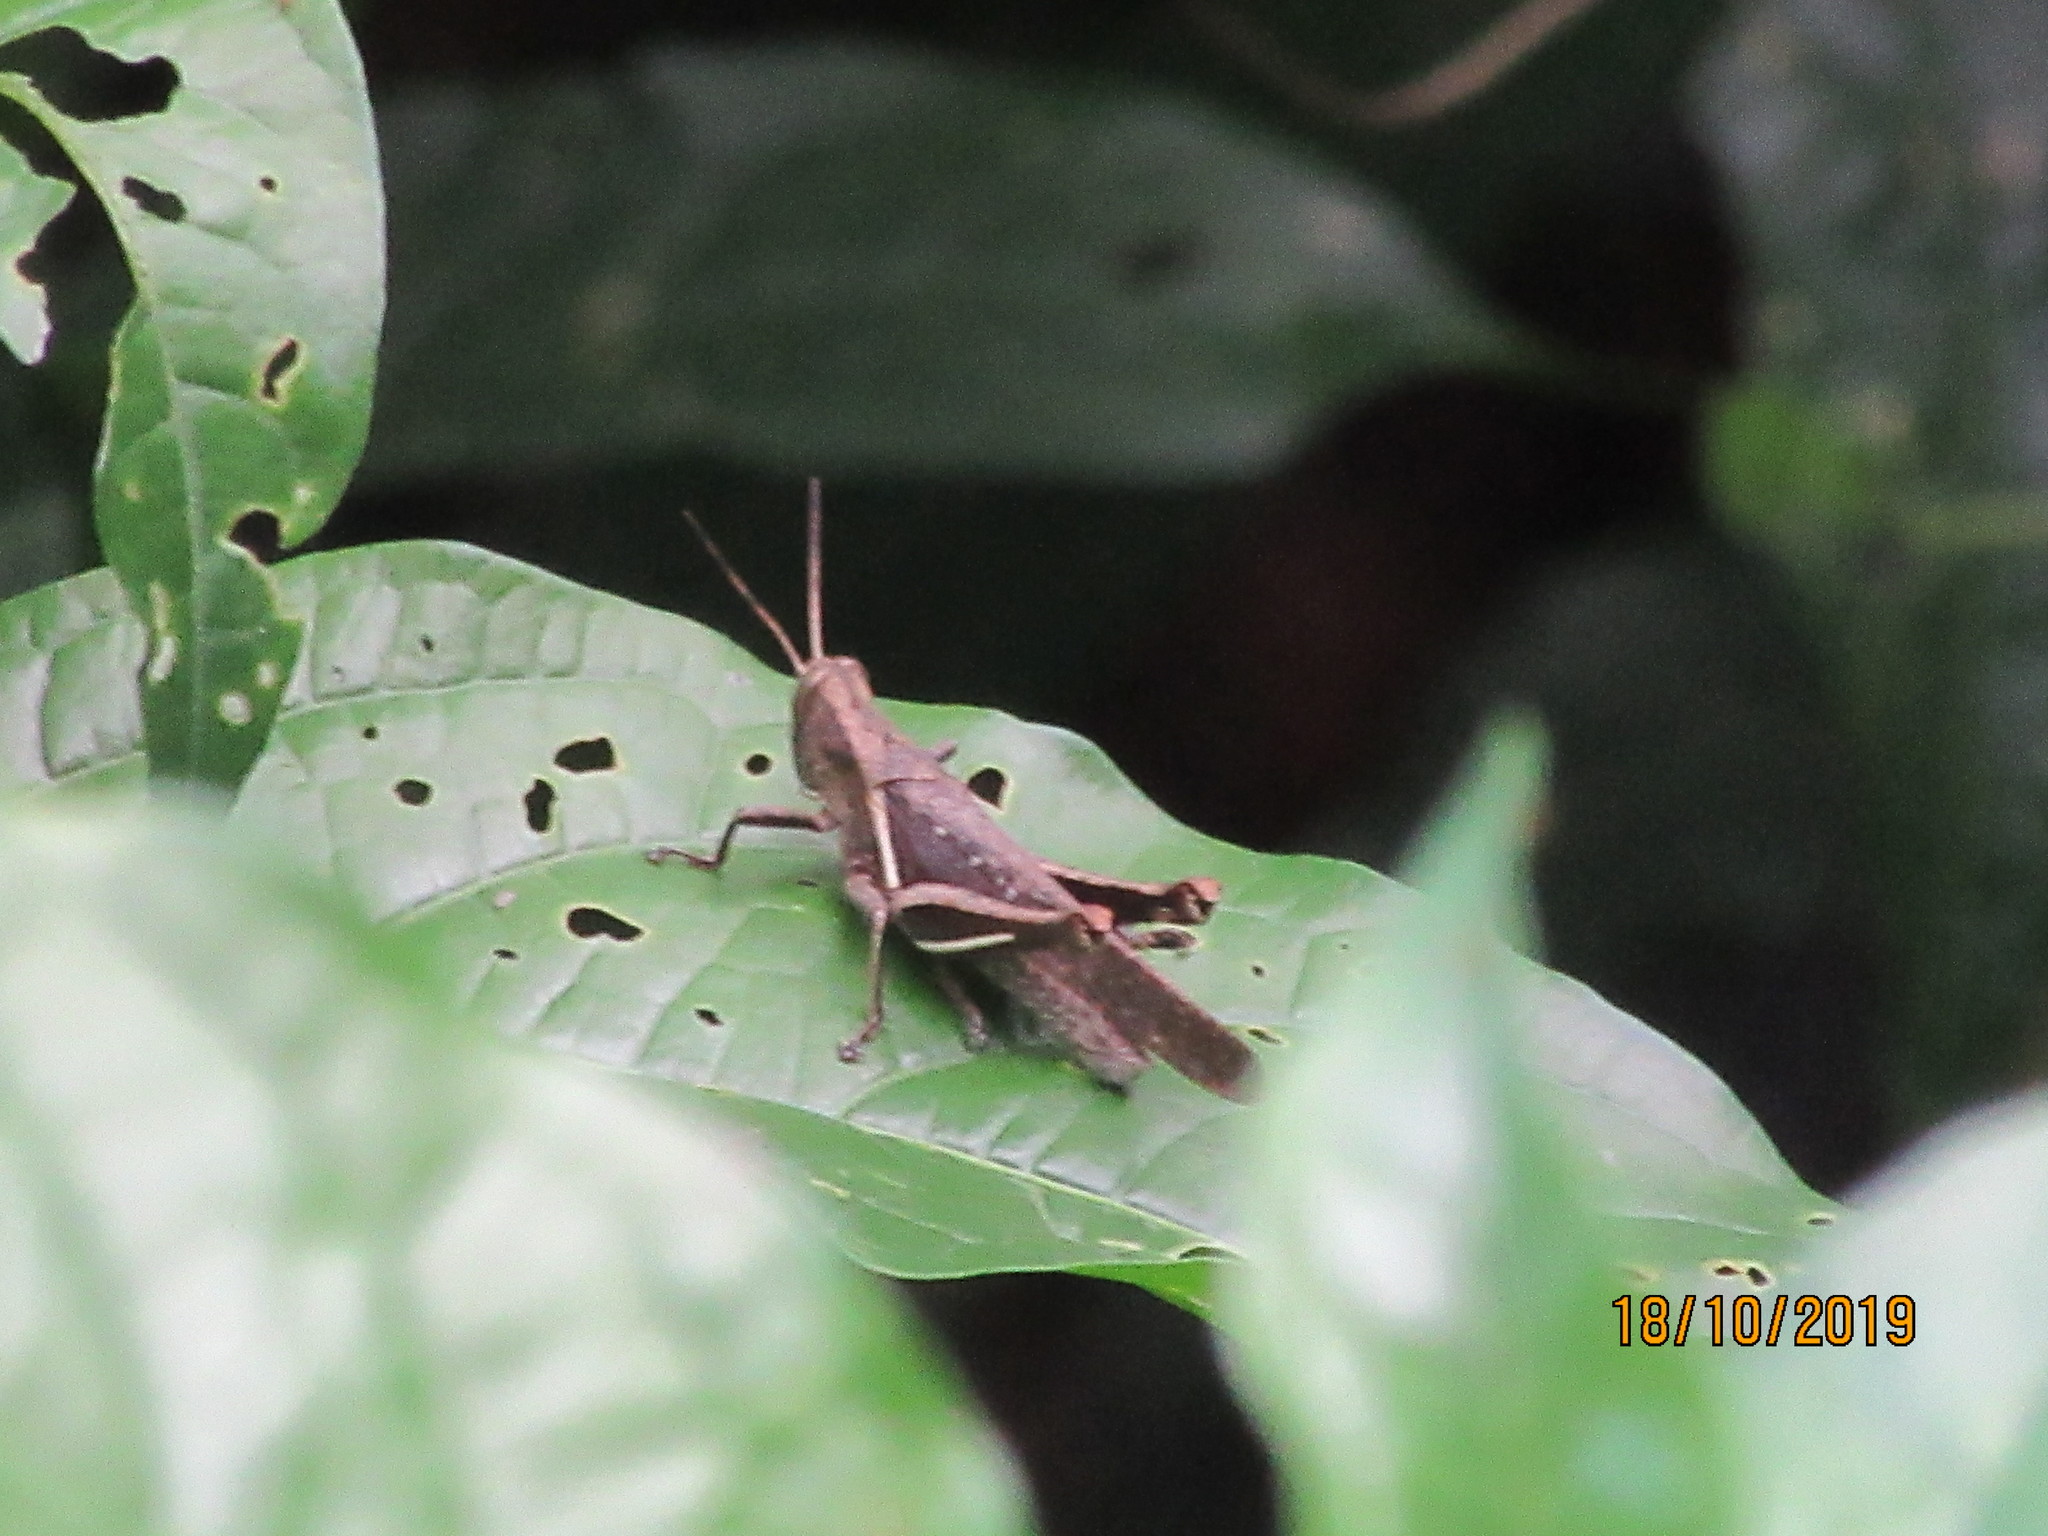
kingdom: Animalia
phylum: Arthropoda
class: Insecta
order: Orthoptera
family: Acrididae
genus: Abracris
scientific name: Abracris flavolineata
